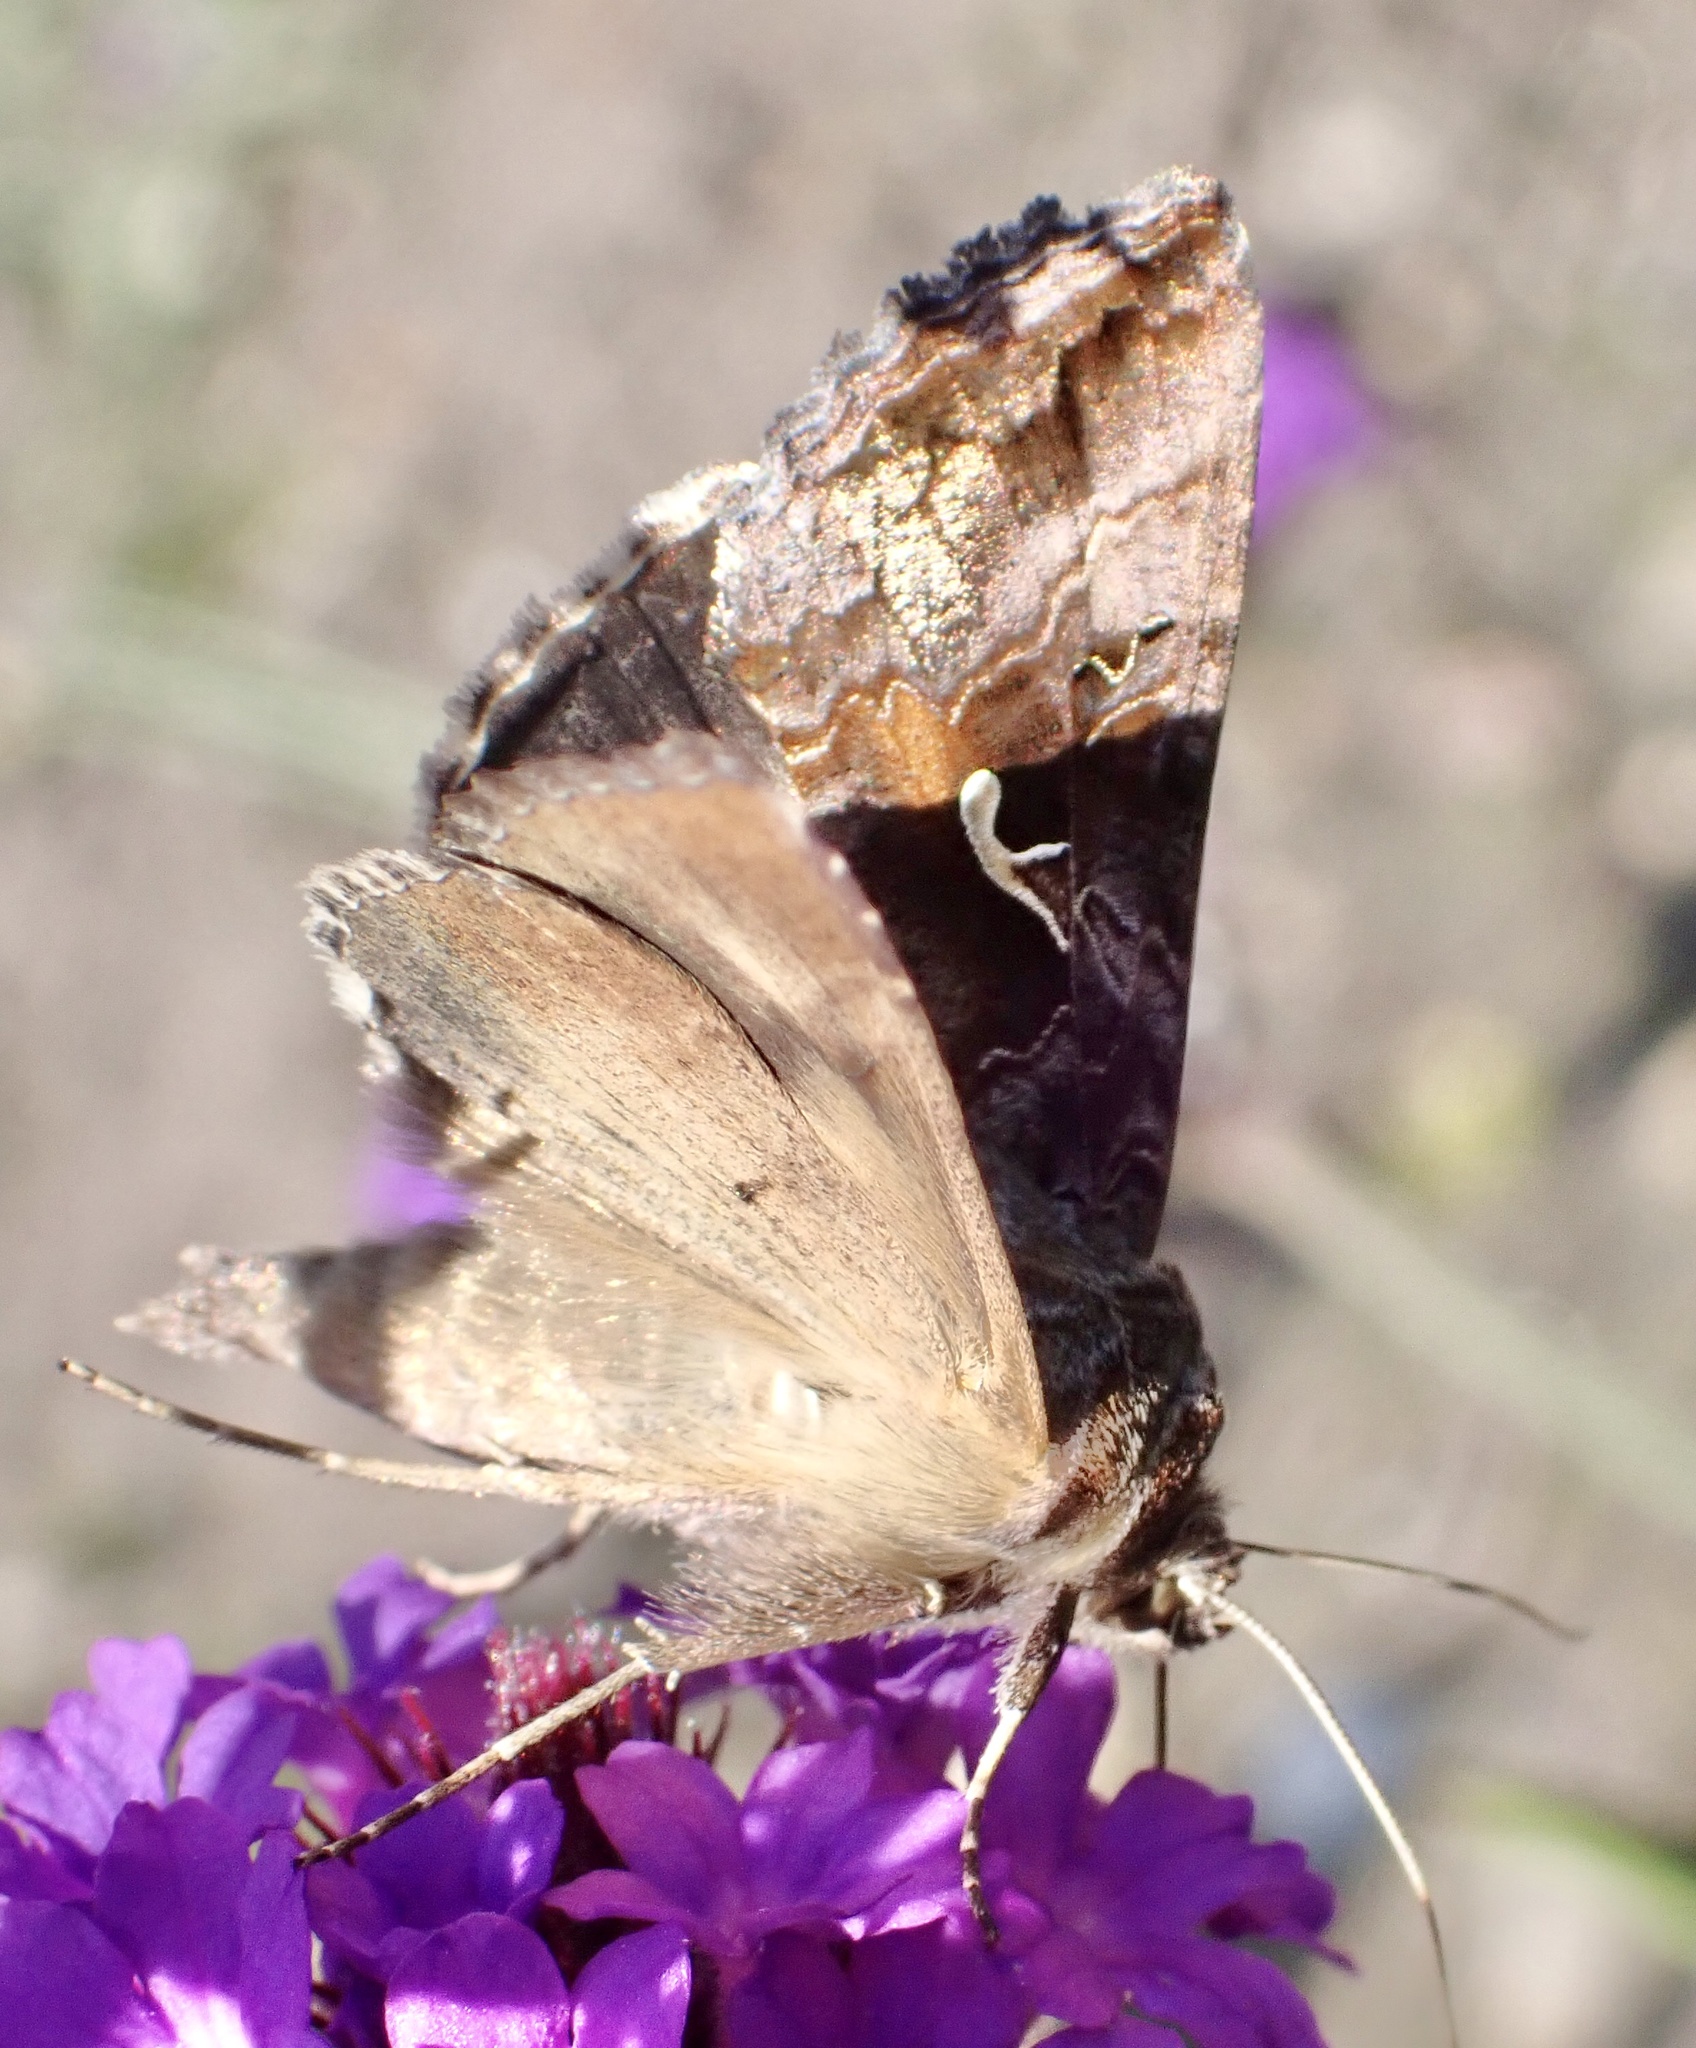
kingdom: Animalia
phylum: Arthropoda
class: Insecta
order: Lepidoptera
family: Noctuidae
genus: Autographa
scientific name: Autographa gamma
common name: Silver y
